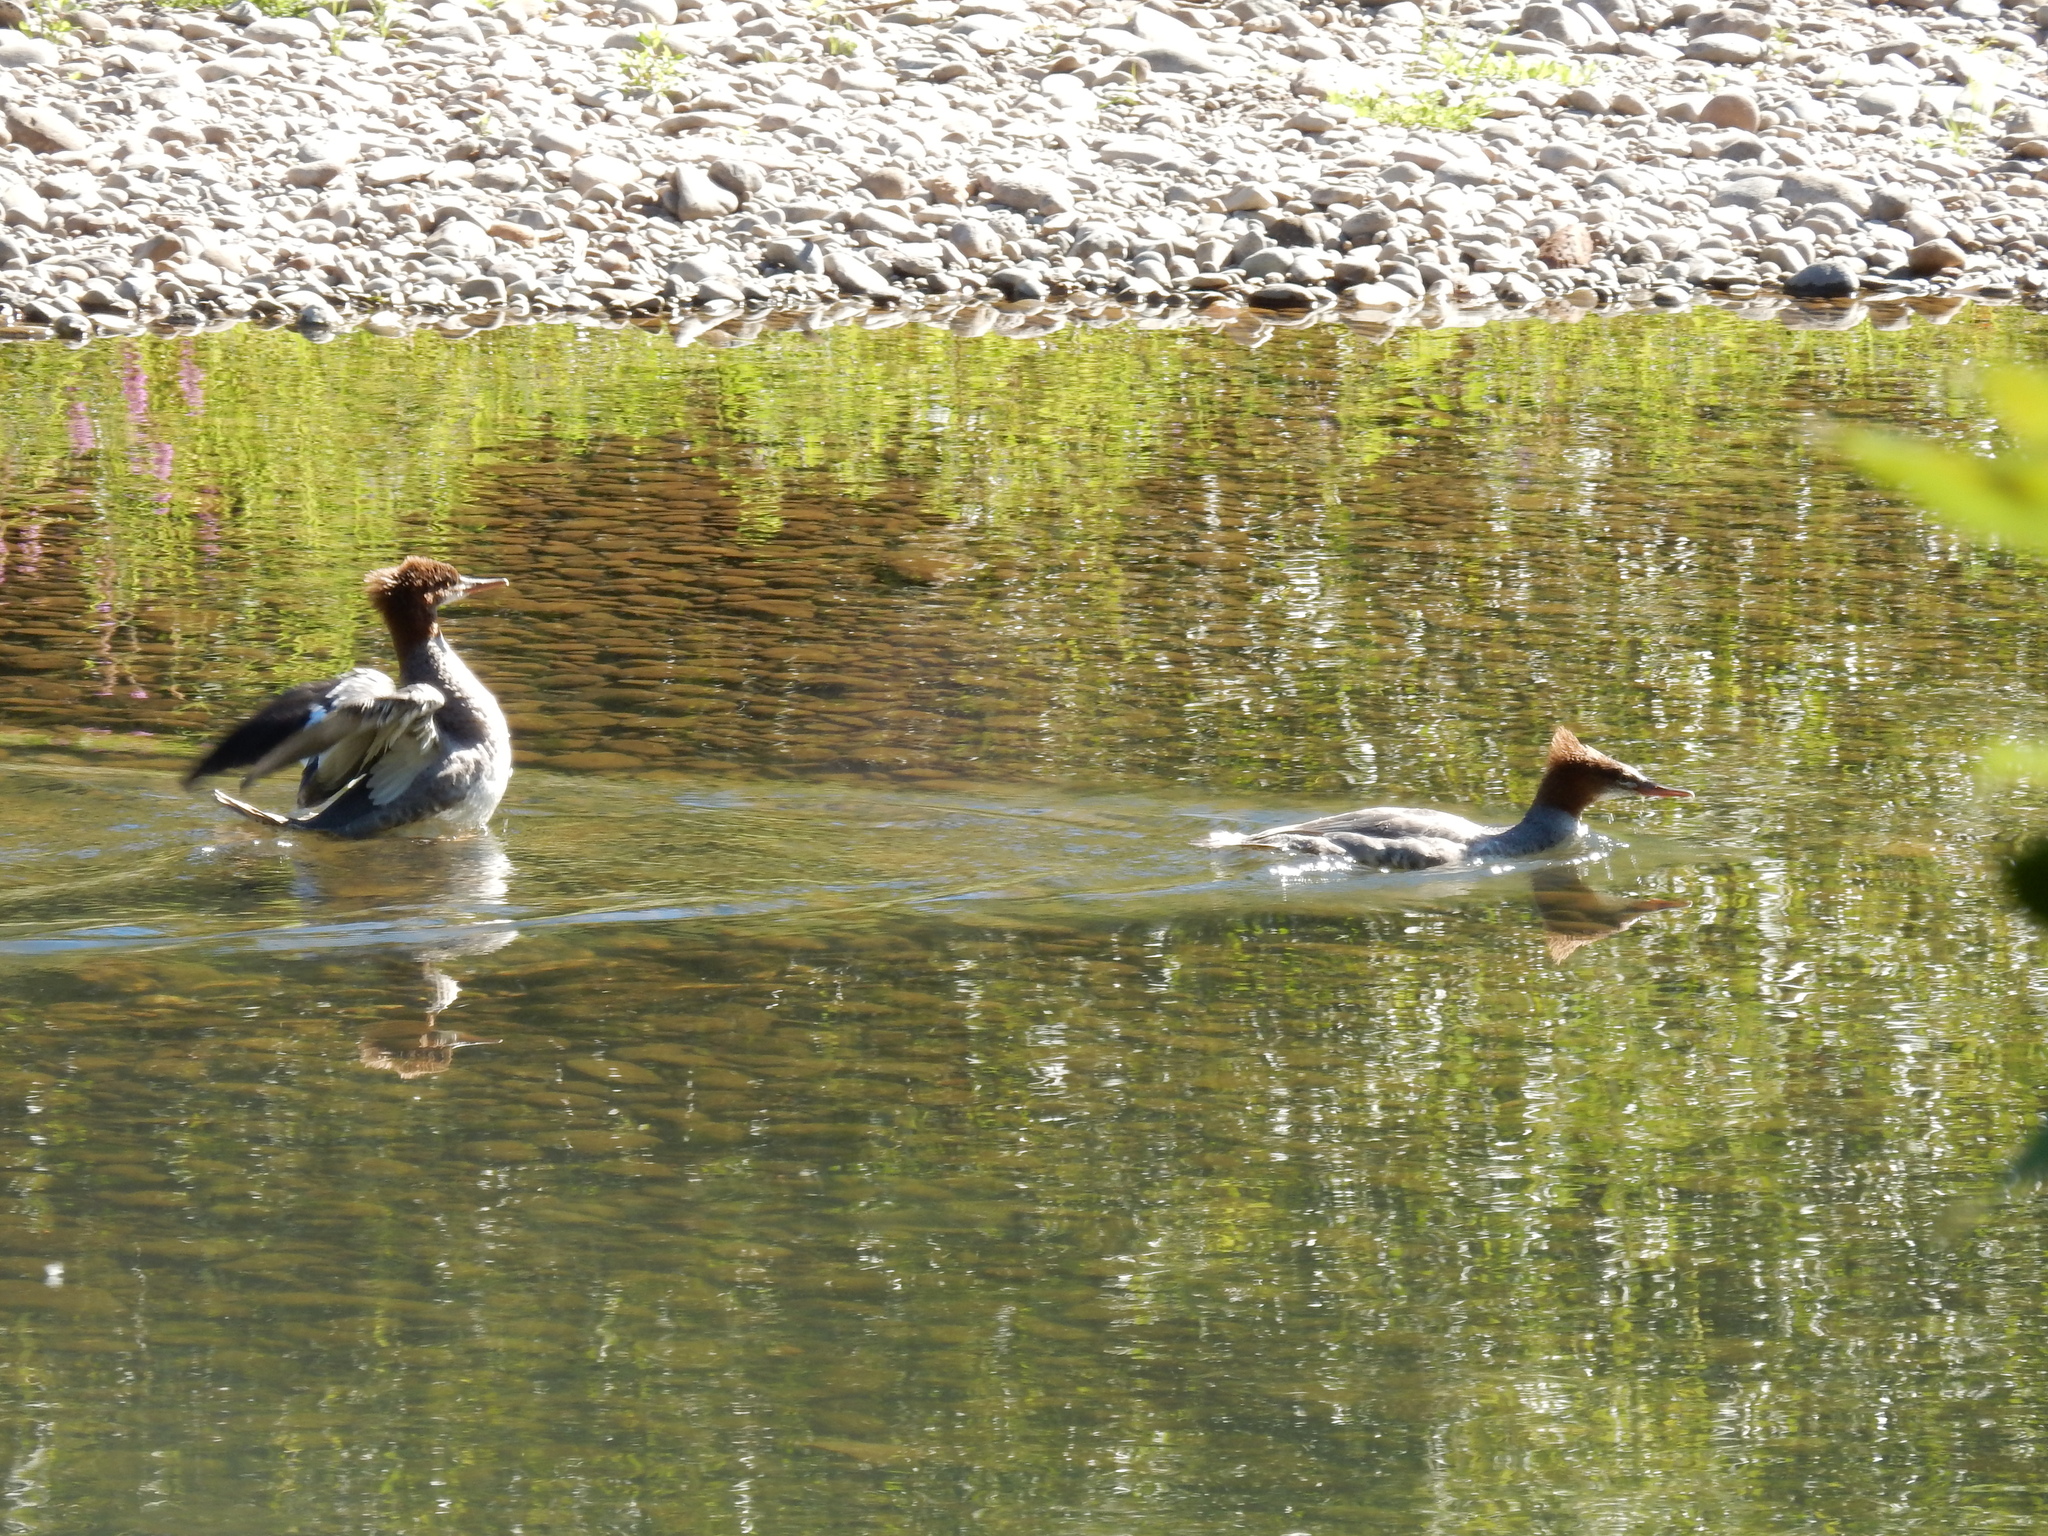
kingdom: Animalia
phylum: Chordata
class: Aves
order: Anseriformes
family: Anatidae
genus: Mergus
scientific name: Mergus merganser
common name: Common merganser
